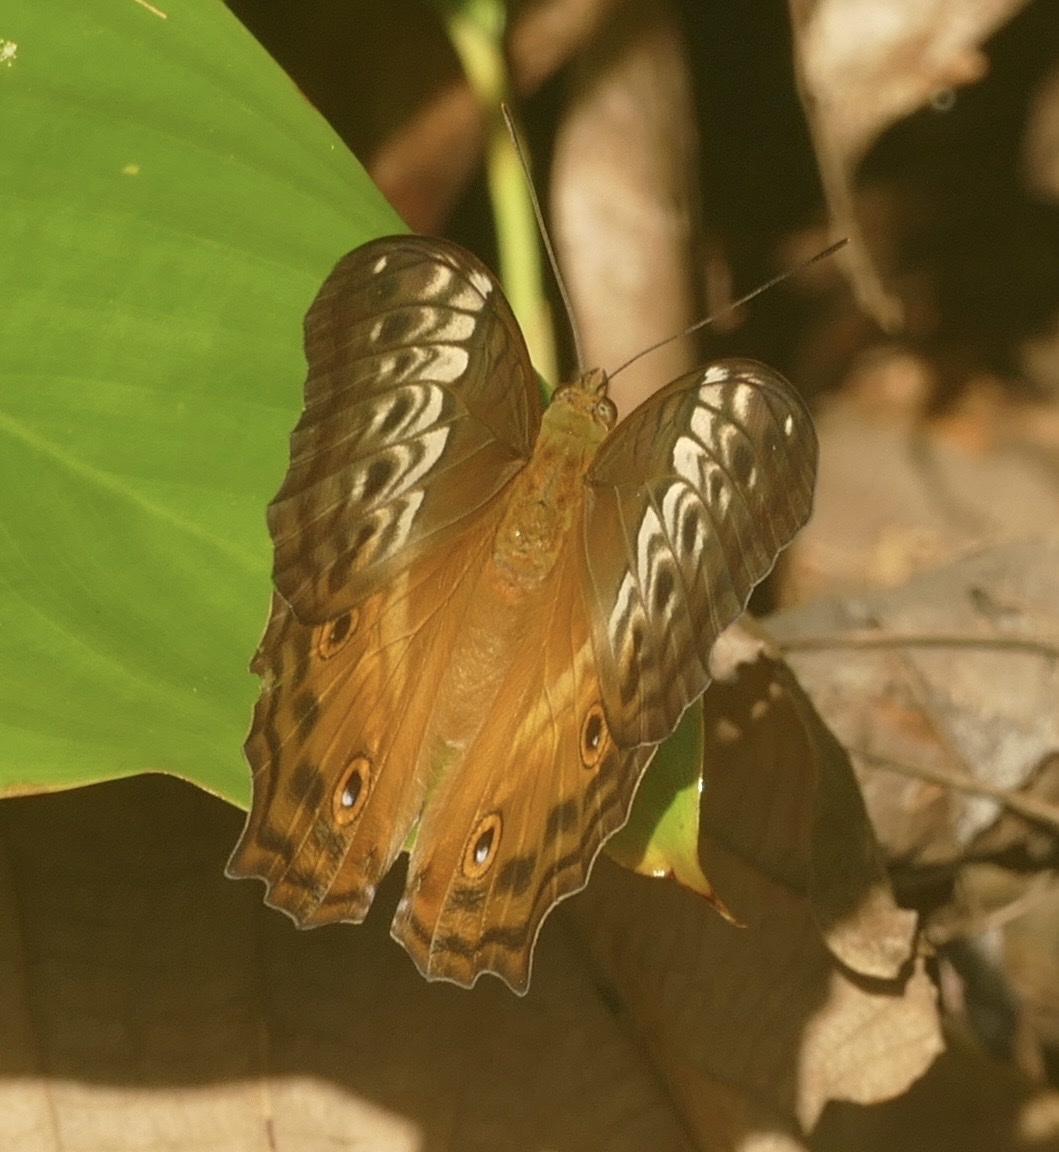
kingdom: Animalia
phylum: Arthropoda
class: Insecta
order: Lepidoptera
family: Nymphalidae
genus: Vindula
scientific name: Vindula arsinoe
